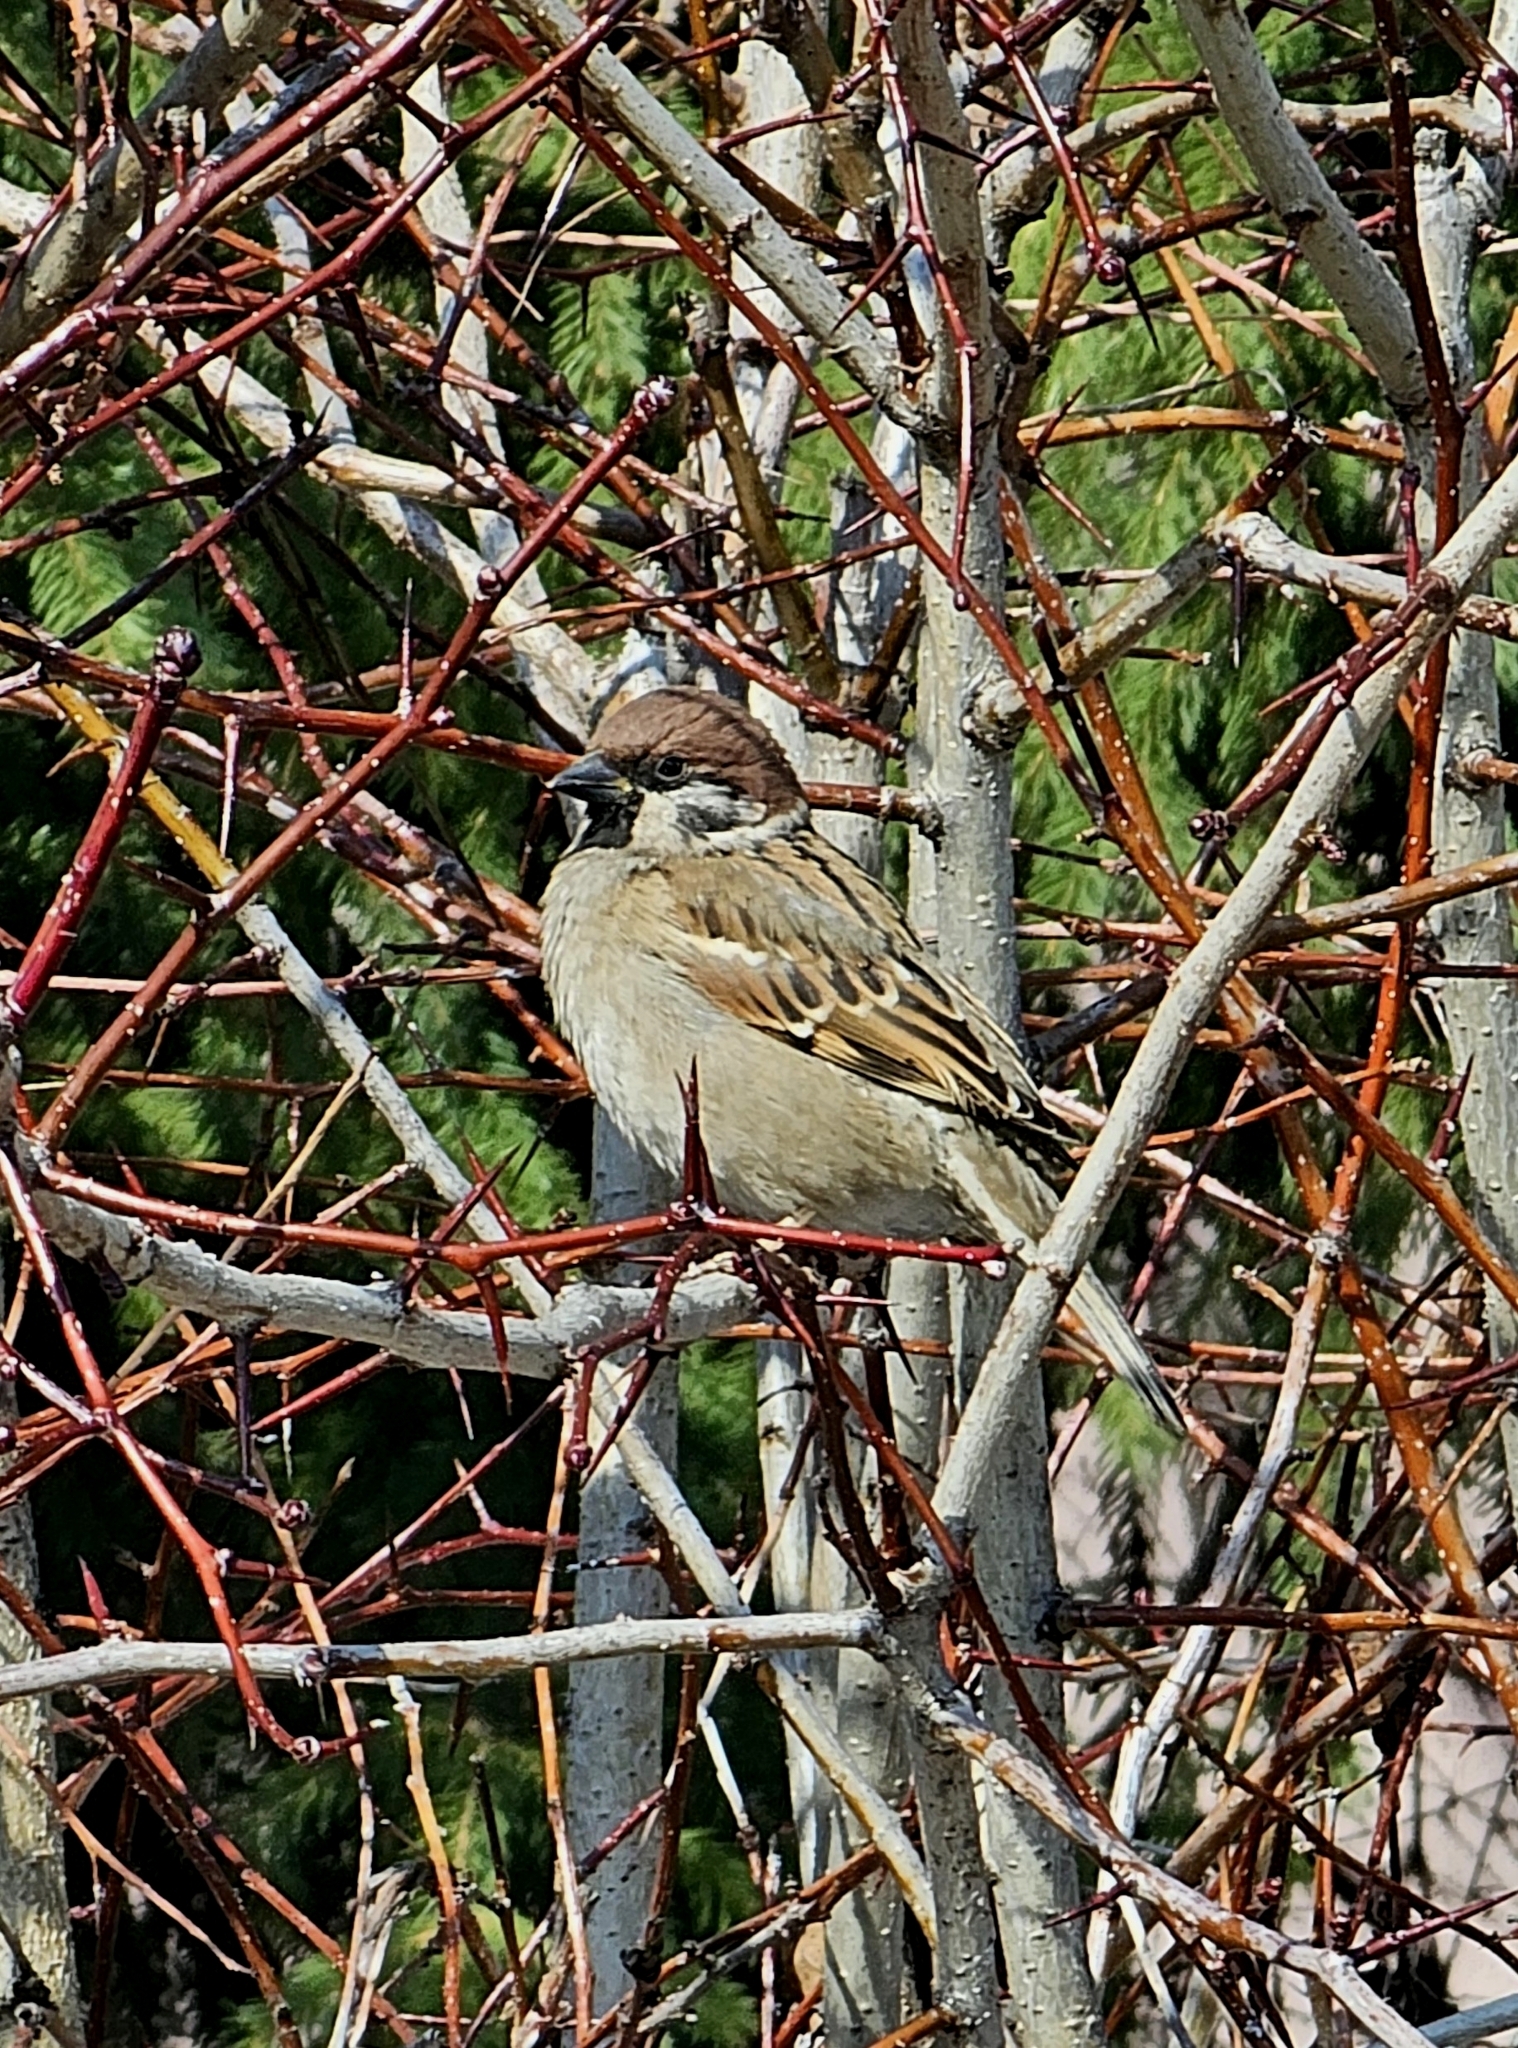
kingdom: Animalia
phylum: Chordata
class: Aves
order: Passeriformes
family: Passeridae
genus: Passer
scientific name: Passer montanus
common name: Eurasian tree sparrow
